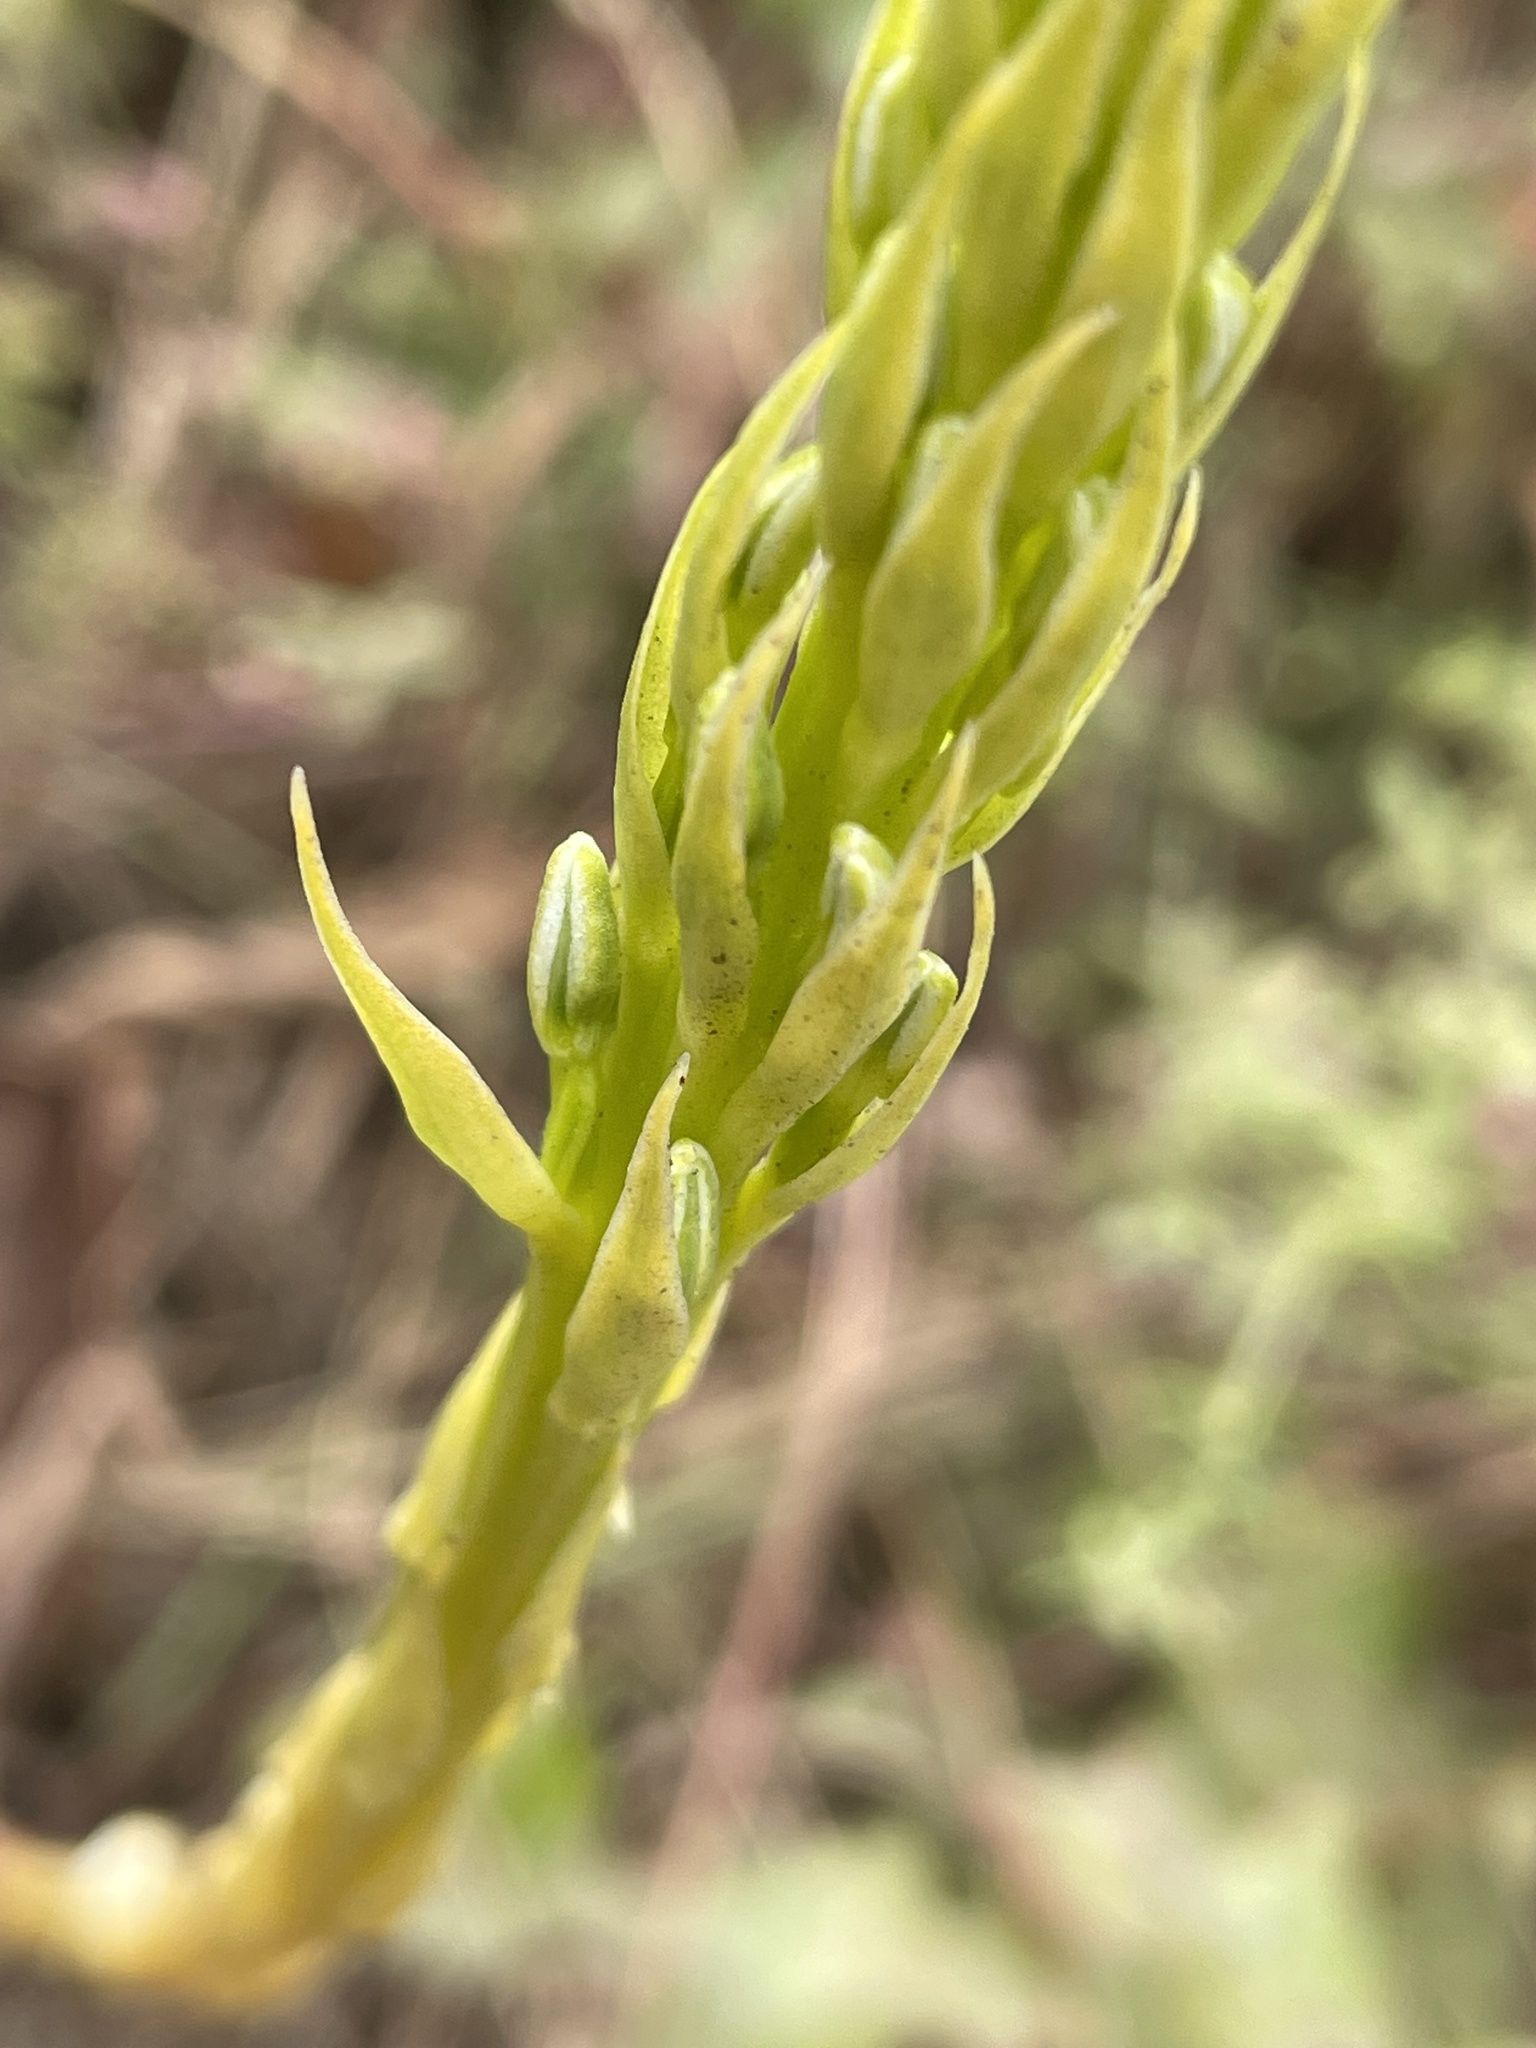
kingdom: Plantae
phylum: Tracheophyta
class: Liliopsida
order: Asparagales
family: Orchidaceae
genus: Platanthera
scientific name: Platanthera elegans
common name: Coast piperia
